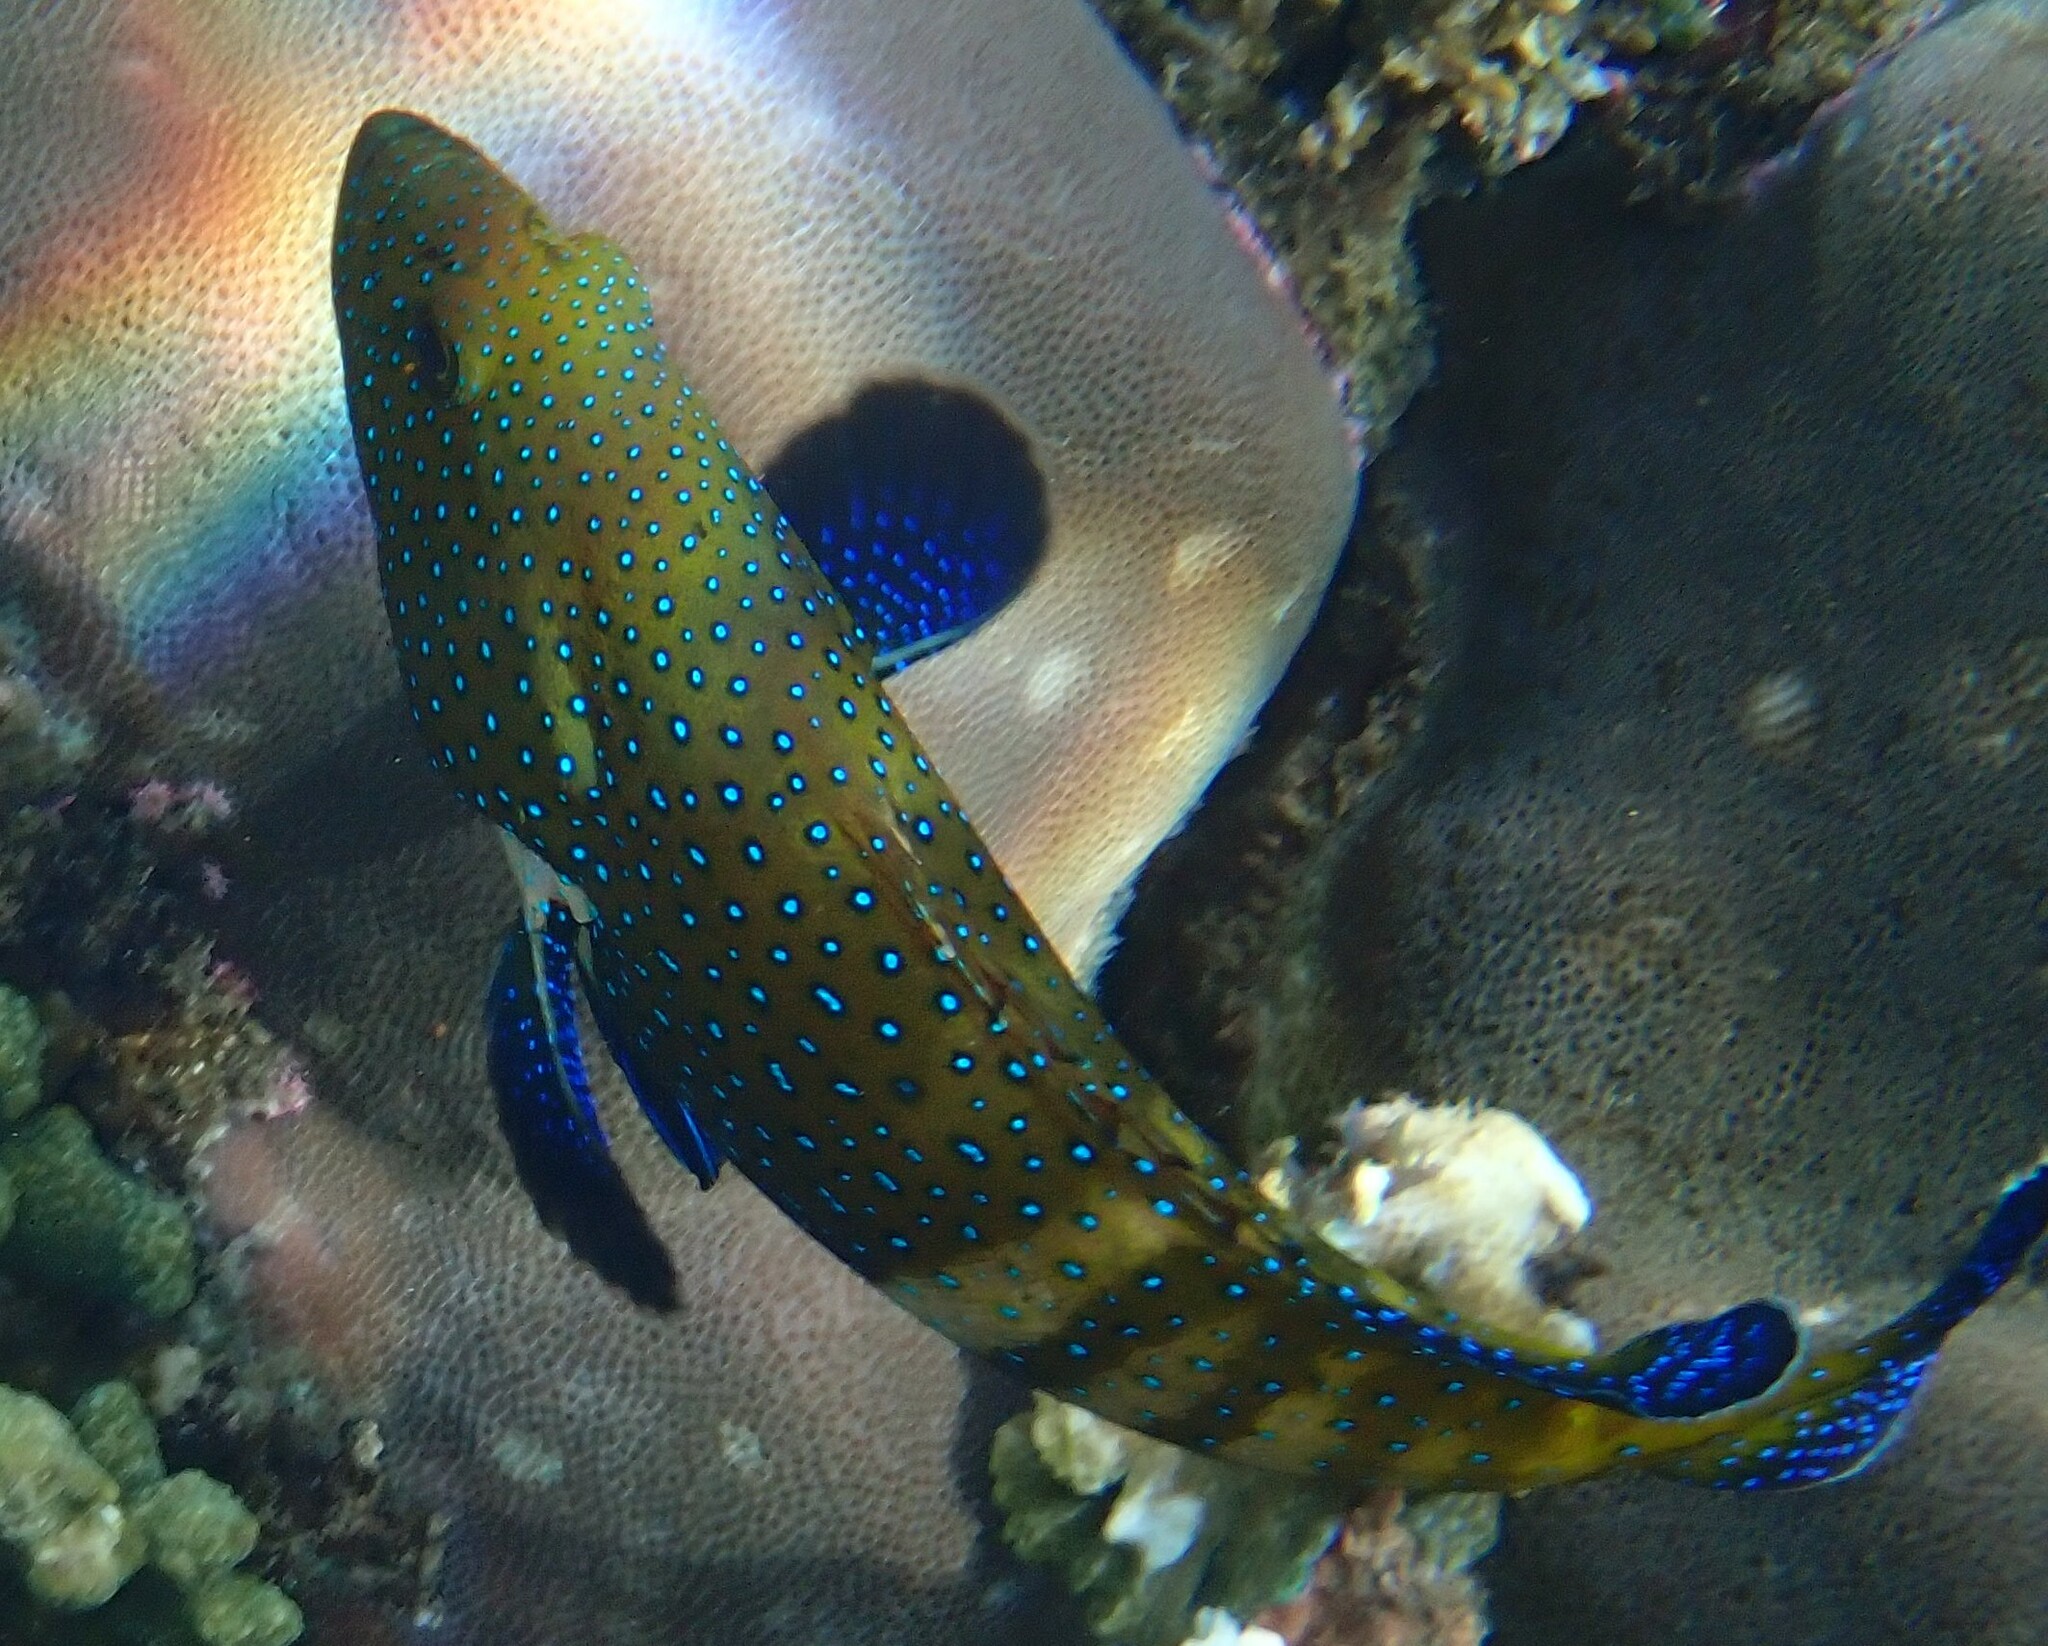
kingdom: Animalia
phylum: Chordata
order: Perciformes
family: Serranidae
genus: Cephalopholis
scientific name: Cephalopholis argus
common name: Peacock grouper
